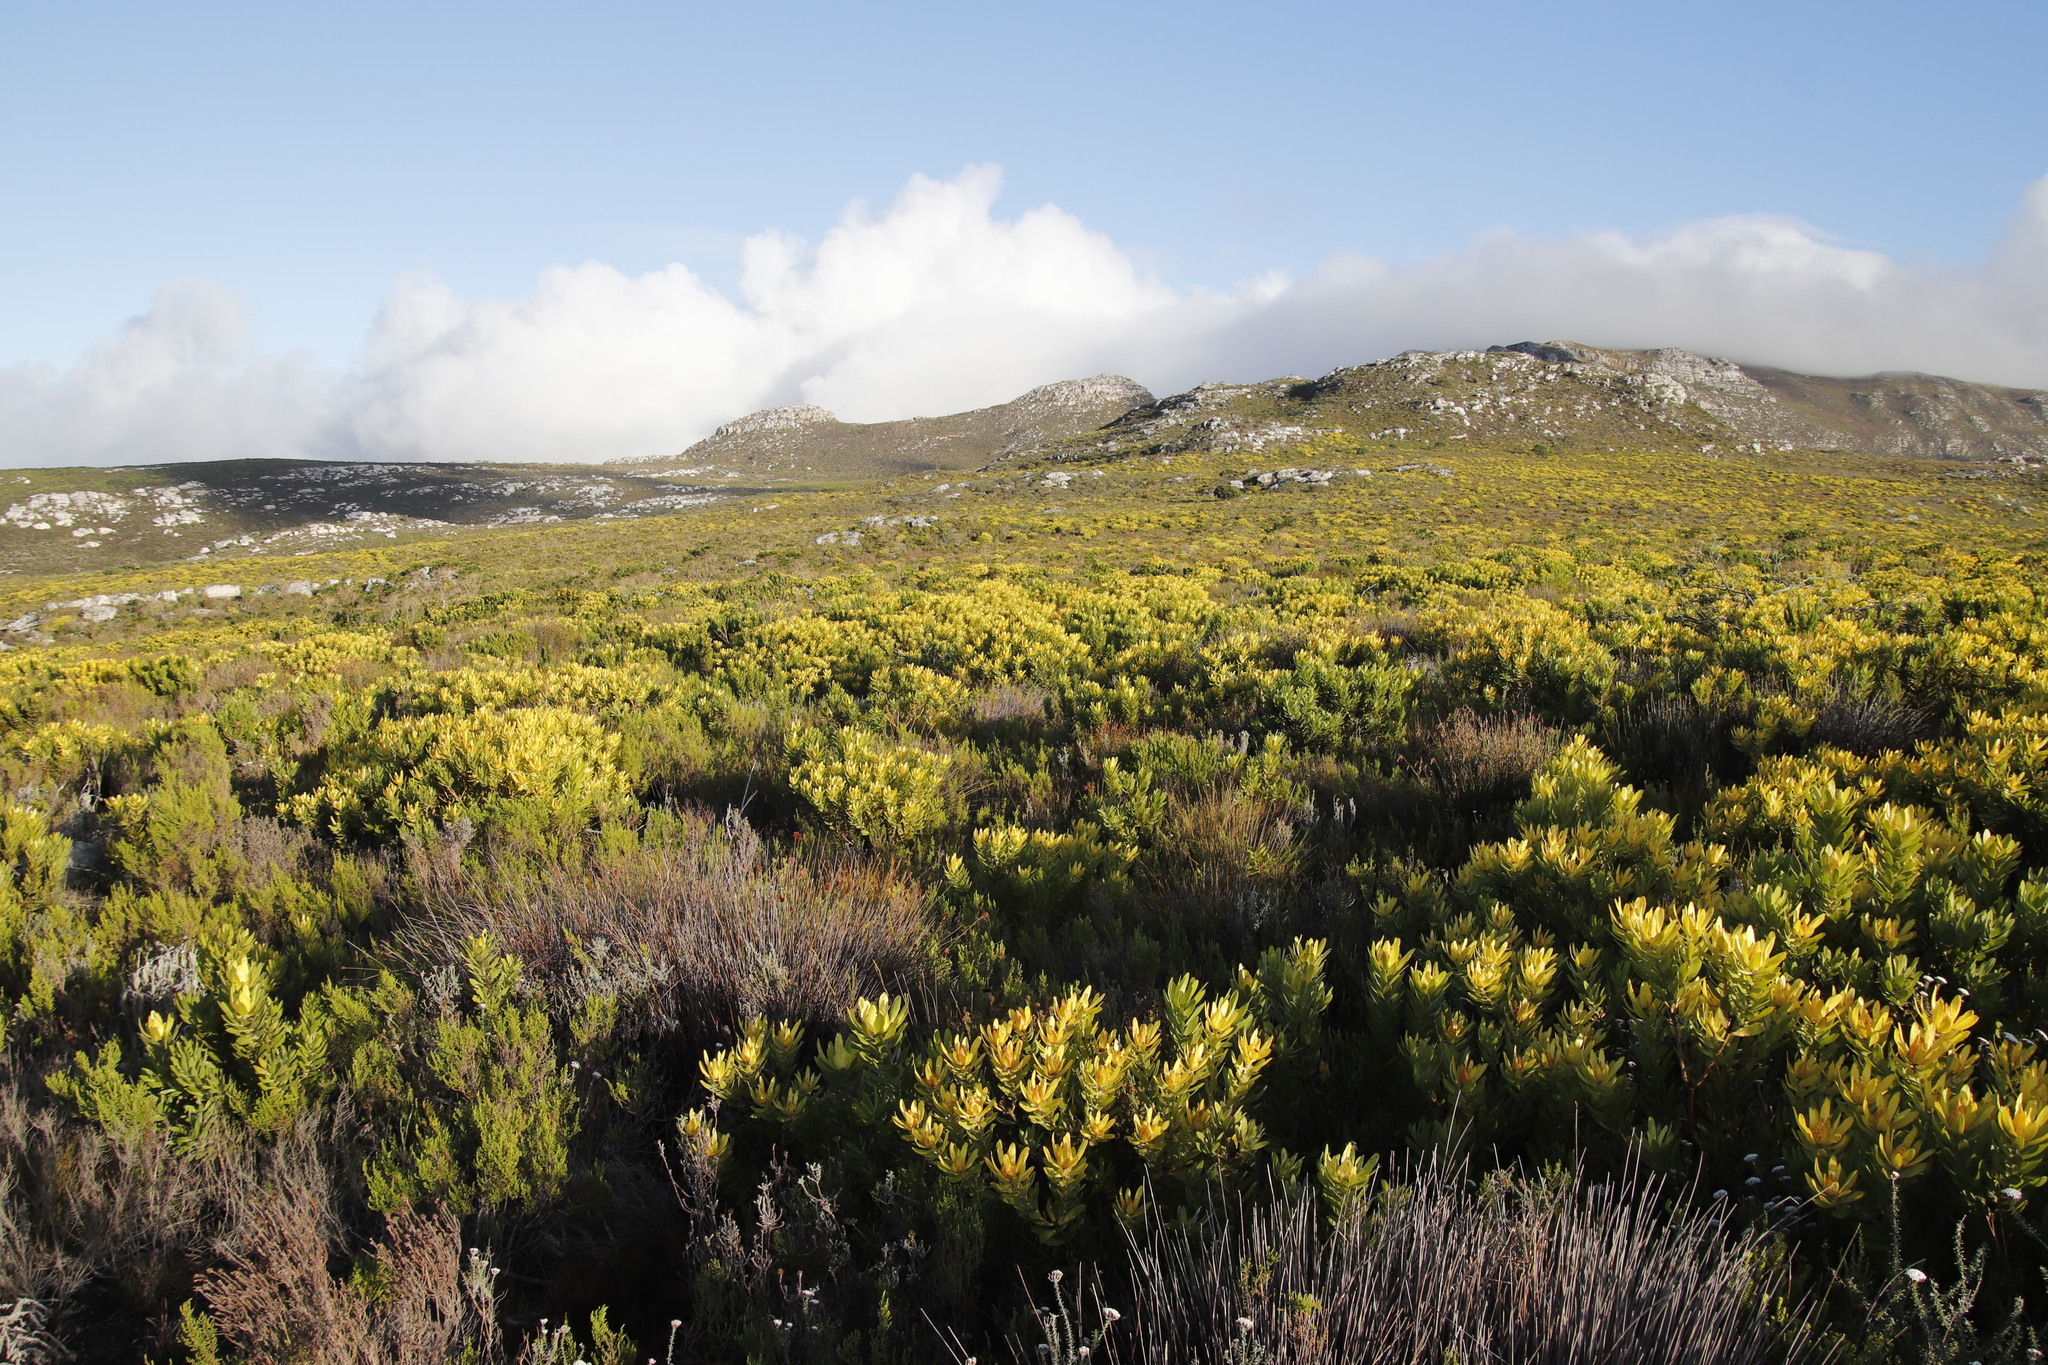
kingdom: Plantae
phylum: Tracheophyta
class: Magnoliopsida
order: Proteales
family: Proteaceae
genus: Leucadendron
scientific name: Leucadendron laureolum
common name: Golden sunshinebush
